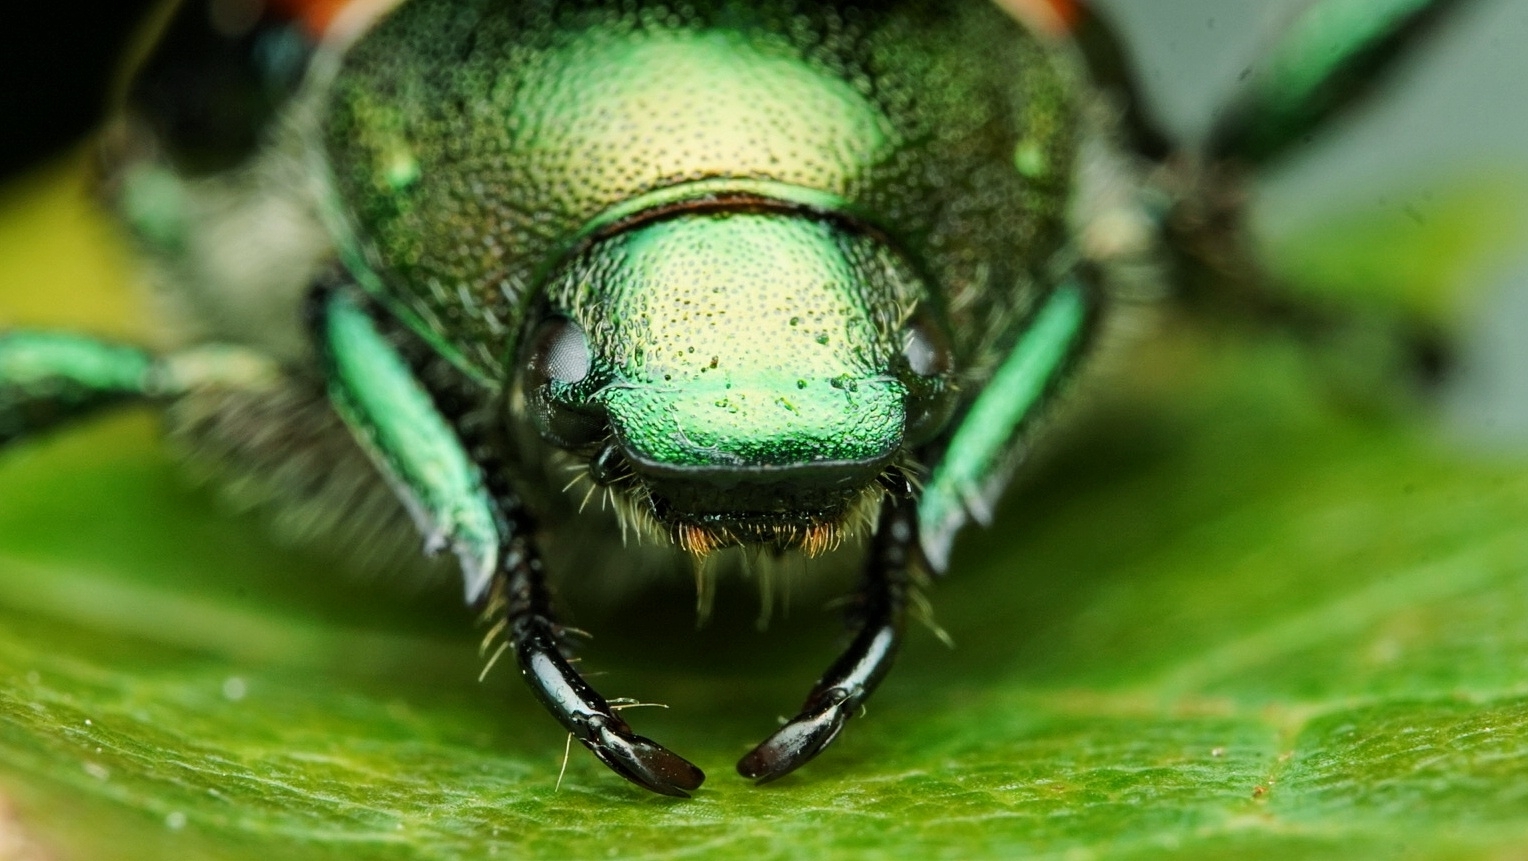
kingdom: Animalia
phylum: Arthropoda
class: Insecta
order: Coleoptera
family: Scarabaeidae
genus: Popillia
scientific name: Popillia japonica
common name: Japanese beetle
